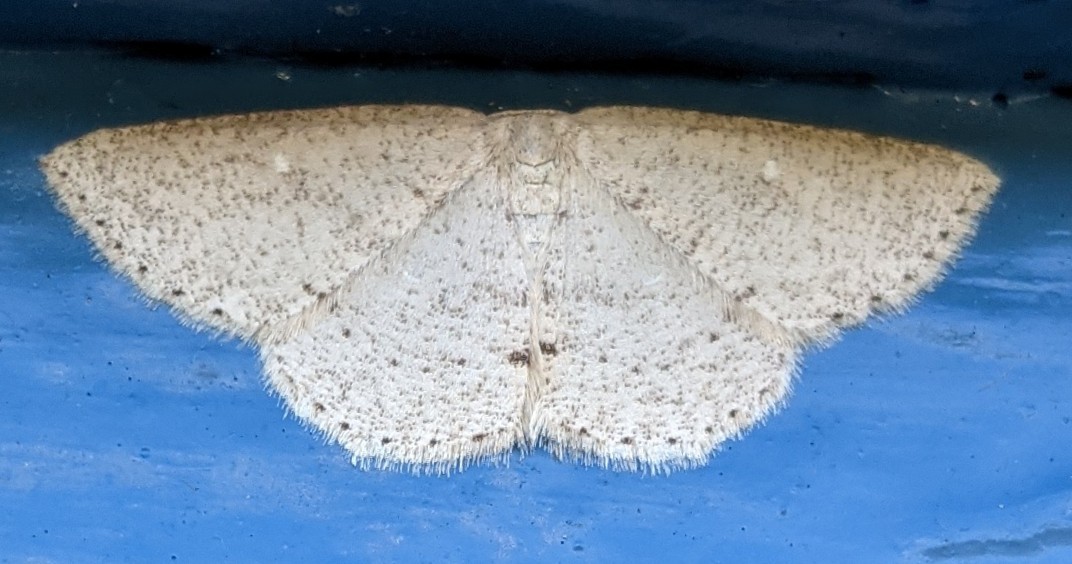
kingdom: Animalia
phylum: Arthropoda
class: Insecta
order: Lepidoptera
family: Geometridae
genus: Cyclophora
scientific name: Cyclophora pendulinaria
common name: Sweet fern geometer
